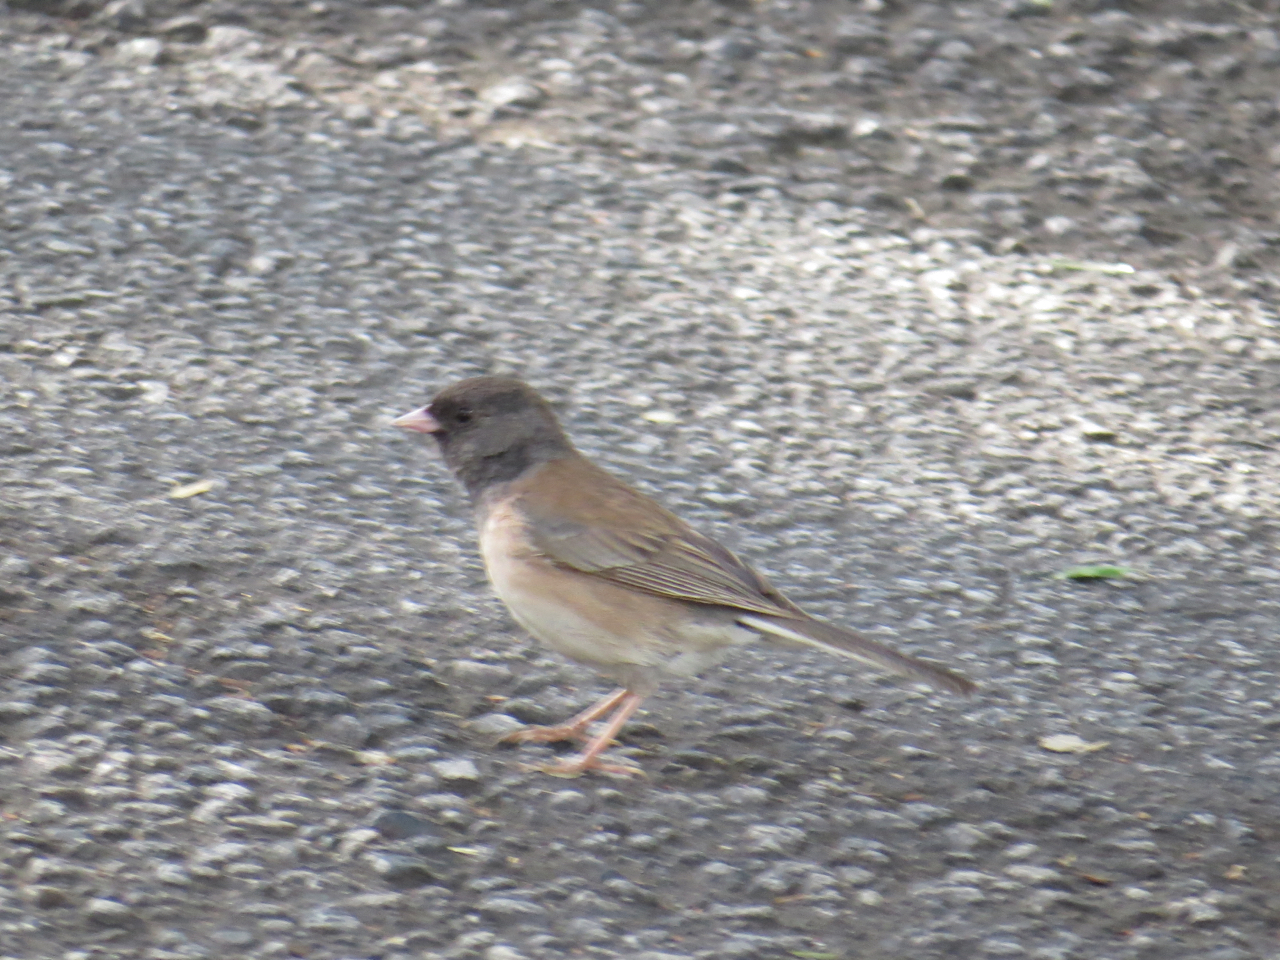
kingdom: Animalia
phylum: Chordata
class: Aves
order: Passeriformes
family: Passerellidae
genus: Junco
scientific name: Junco hyemalis
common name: Dark-eyed junco
